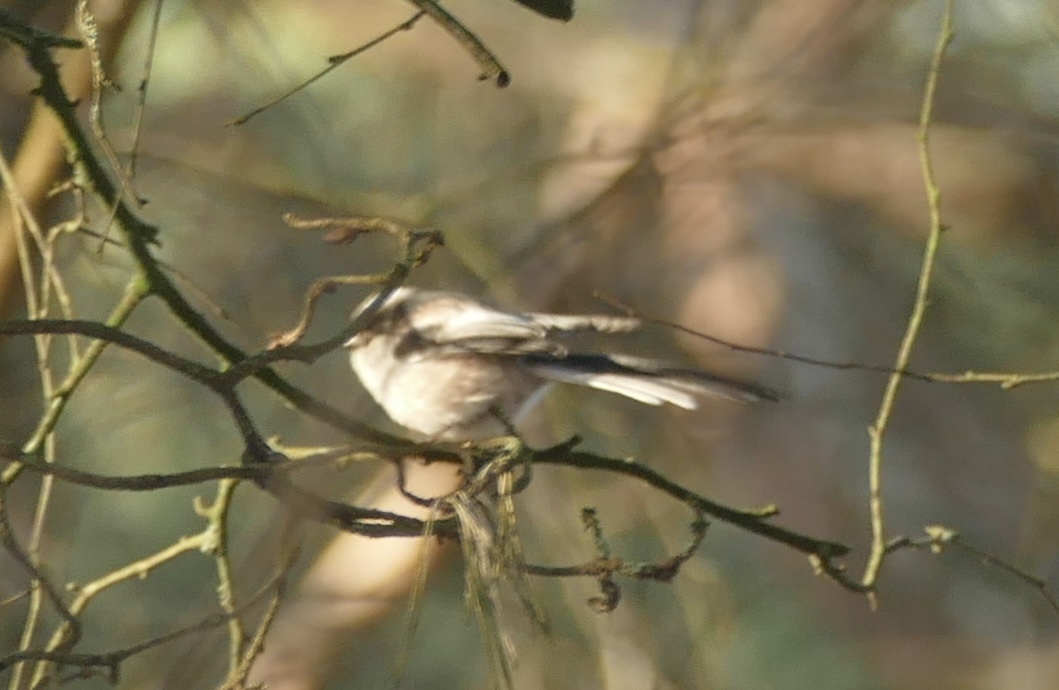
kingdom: Animalia
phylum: Chordata
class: Aves
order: Passeriformes
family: Aegithalidae
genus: Aegithalos
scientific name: Aegithalos caudatus
